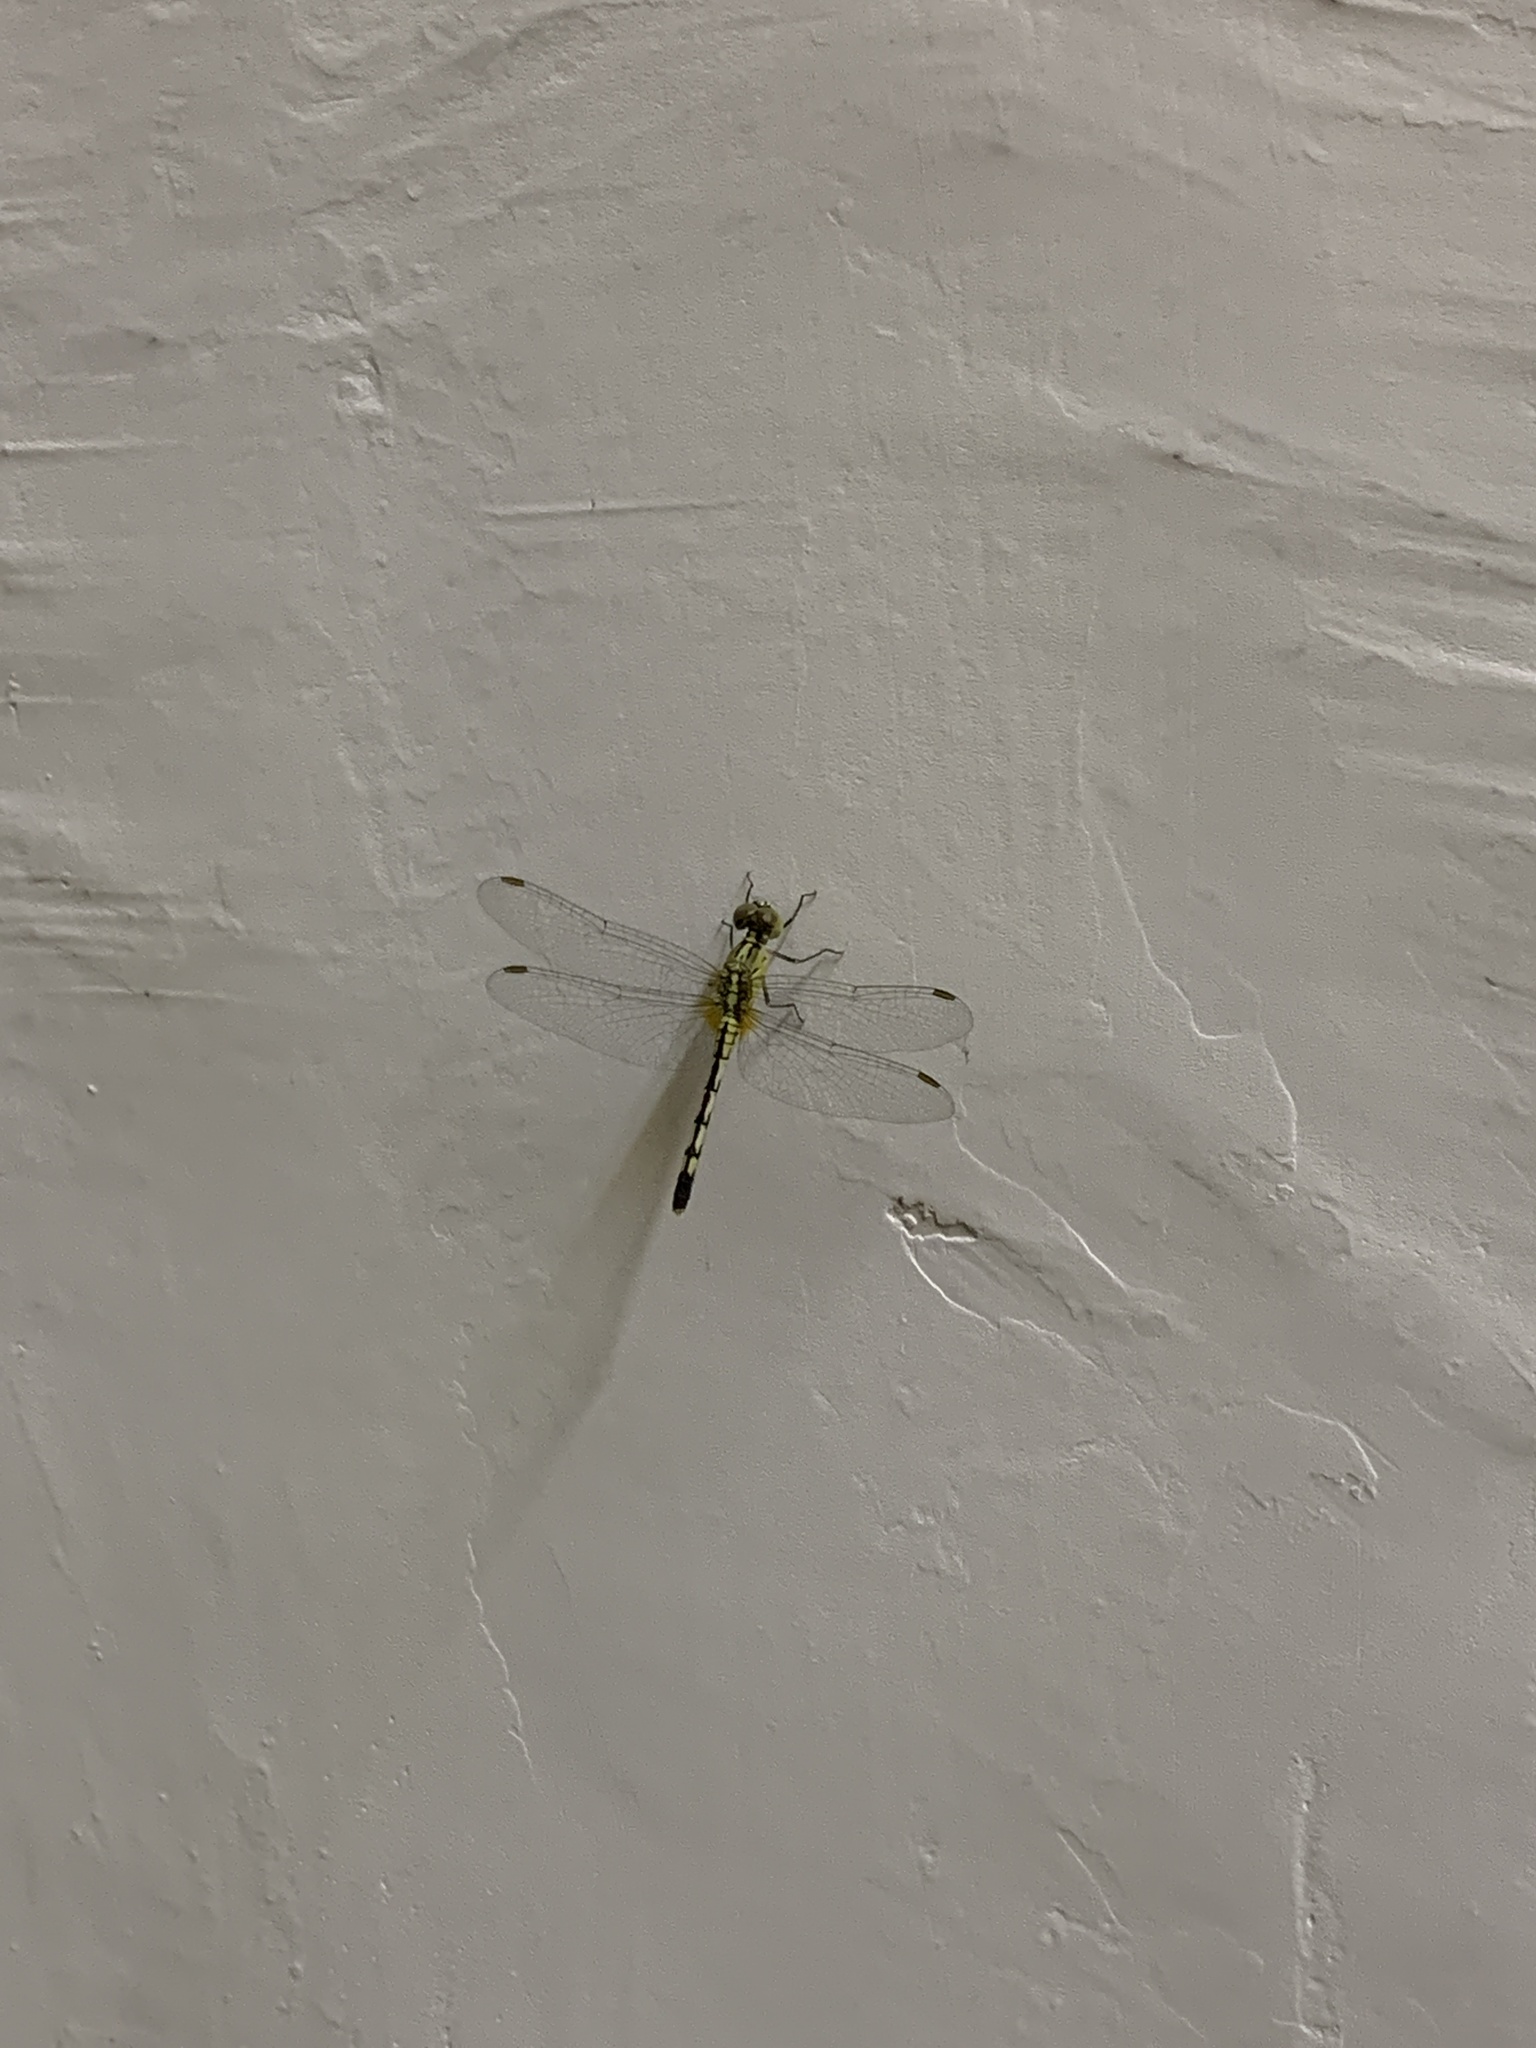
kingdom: Animalia
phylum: Arthropoda
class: Insecta
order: Odonata
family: Libellulidae
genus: Diplacodes
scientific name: Diplacodes trivialis
